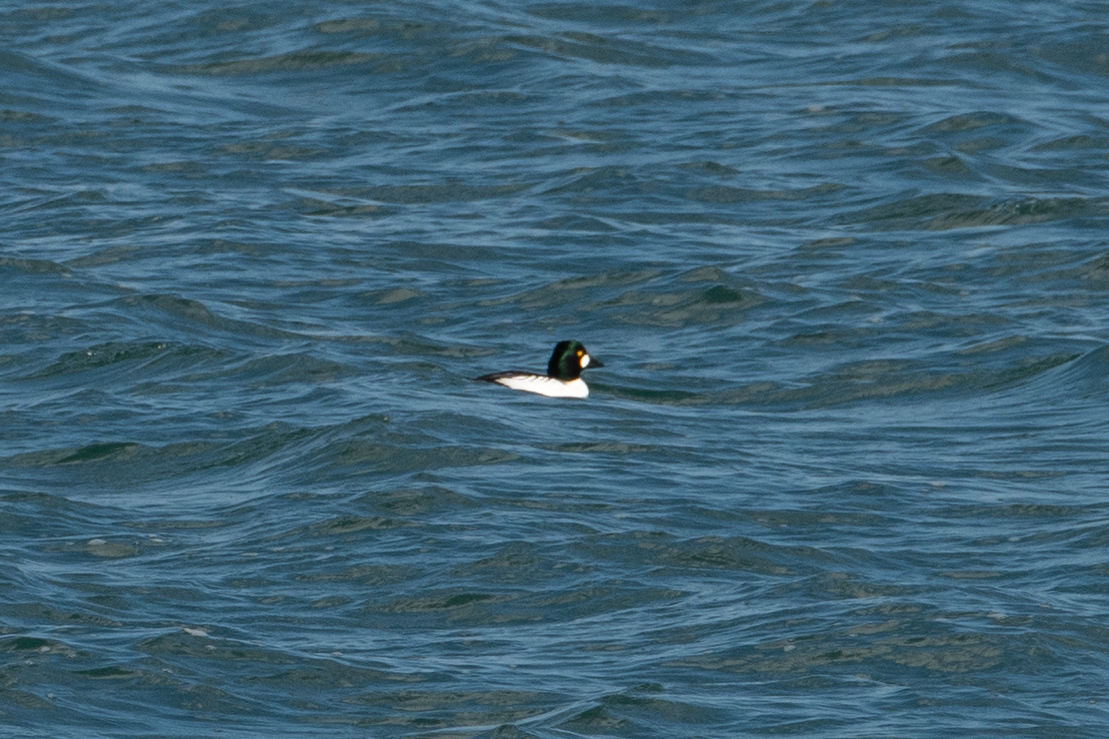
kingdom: Animalia
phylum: Chordata
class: Aves
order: Anseriformes
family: Anatidae
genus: Bucephala
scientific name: Bucephala clangula
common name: Common goldeneye
